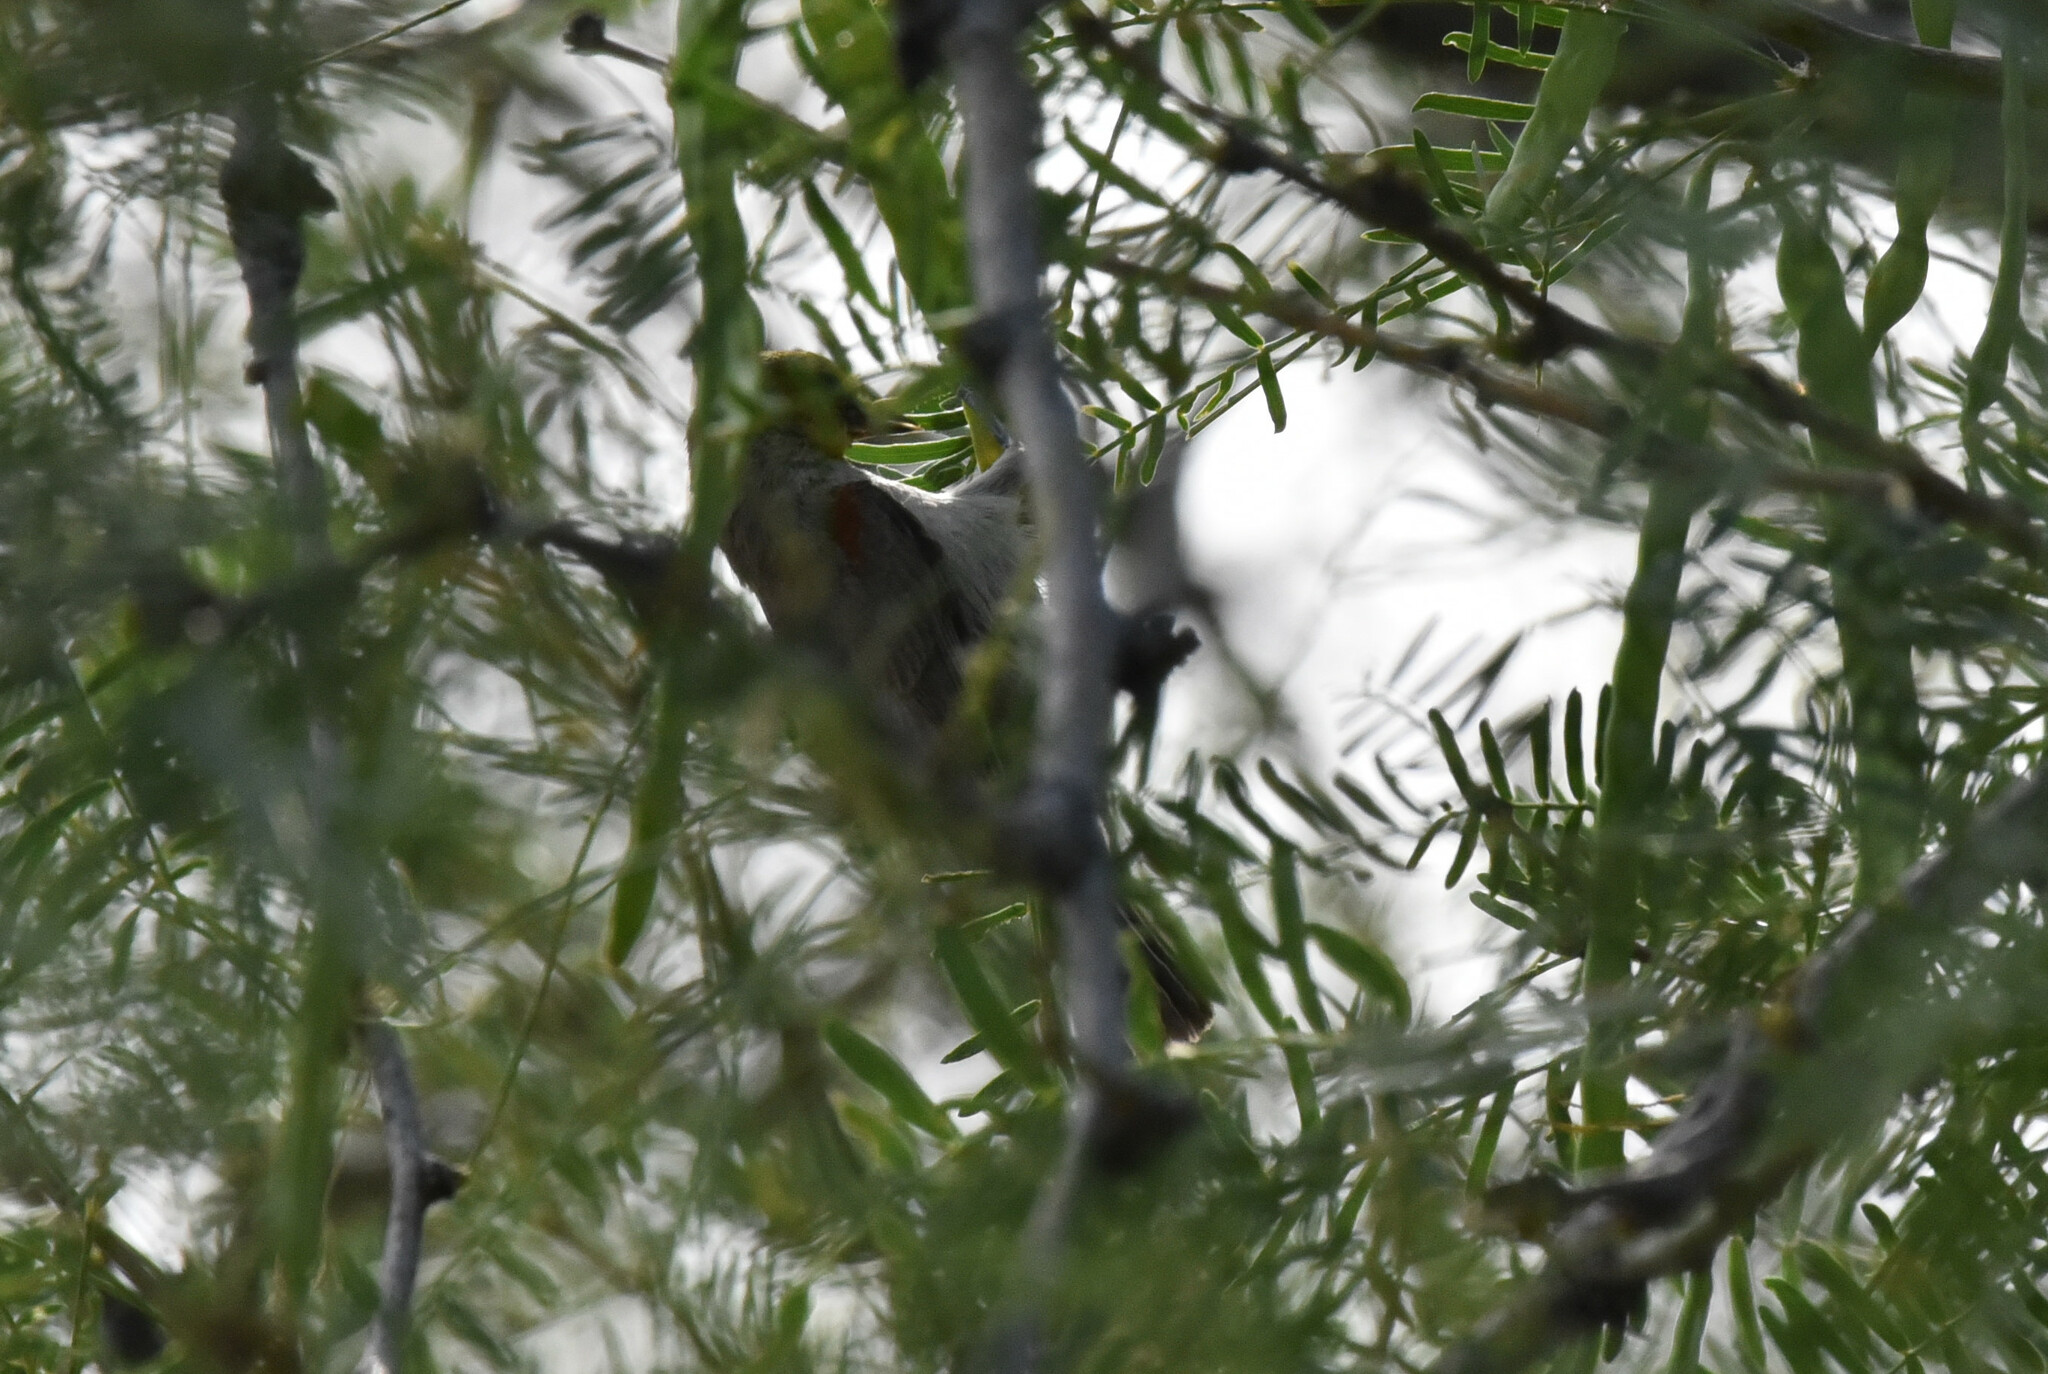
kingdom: Animalia
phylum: Chordata
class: Aves
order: Passeriformes
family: Remizidae
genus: Auriparus
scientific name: Auriparus flaviceps
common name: Verdin
